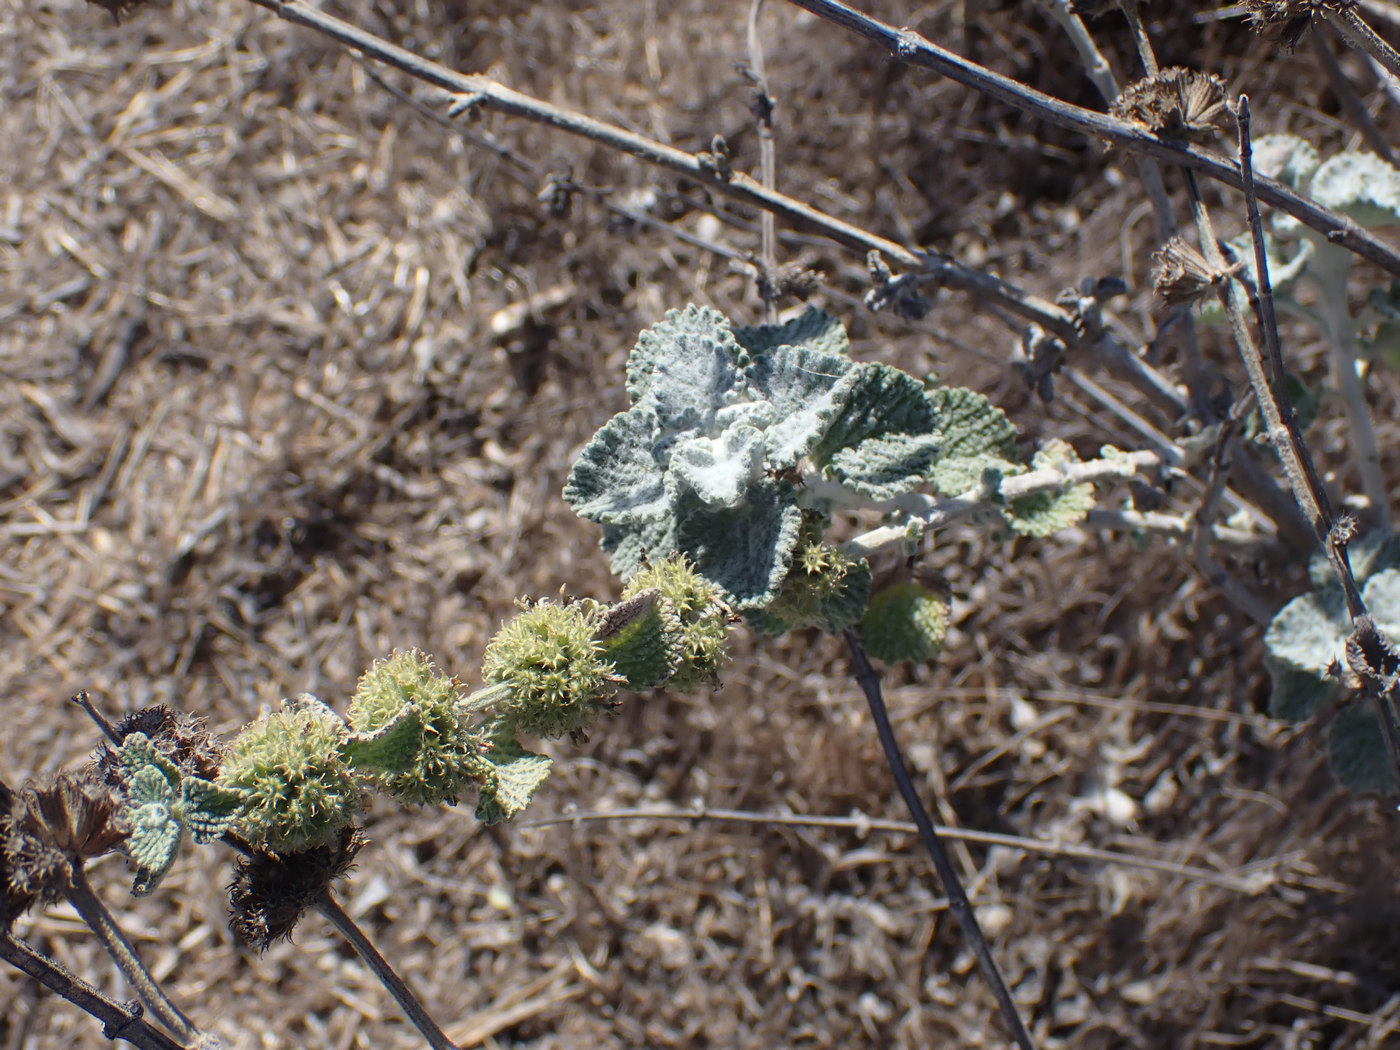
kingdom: Plantae
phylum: Tracheophyta
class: Magnoliopsida
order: Lamiales
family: Lamiaceae
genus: Marrubium
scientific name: Marrubium vulgare
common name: Horehound
